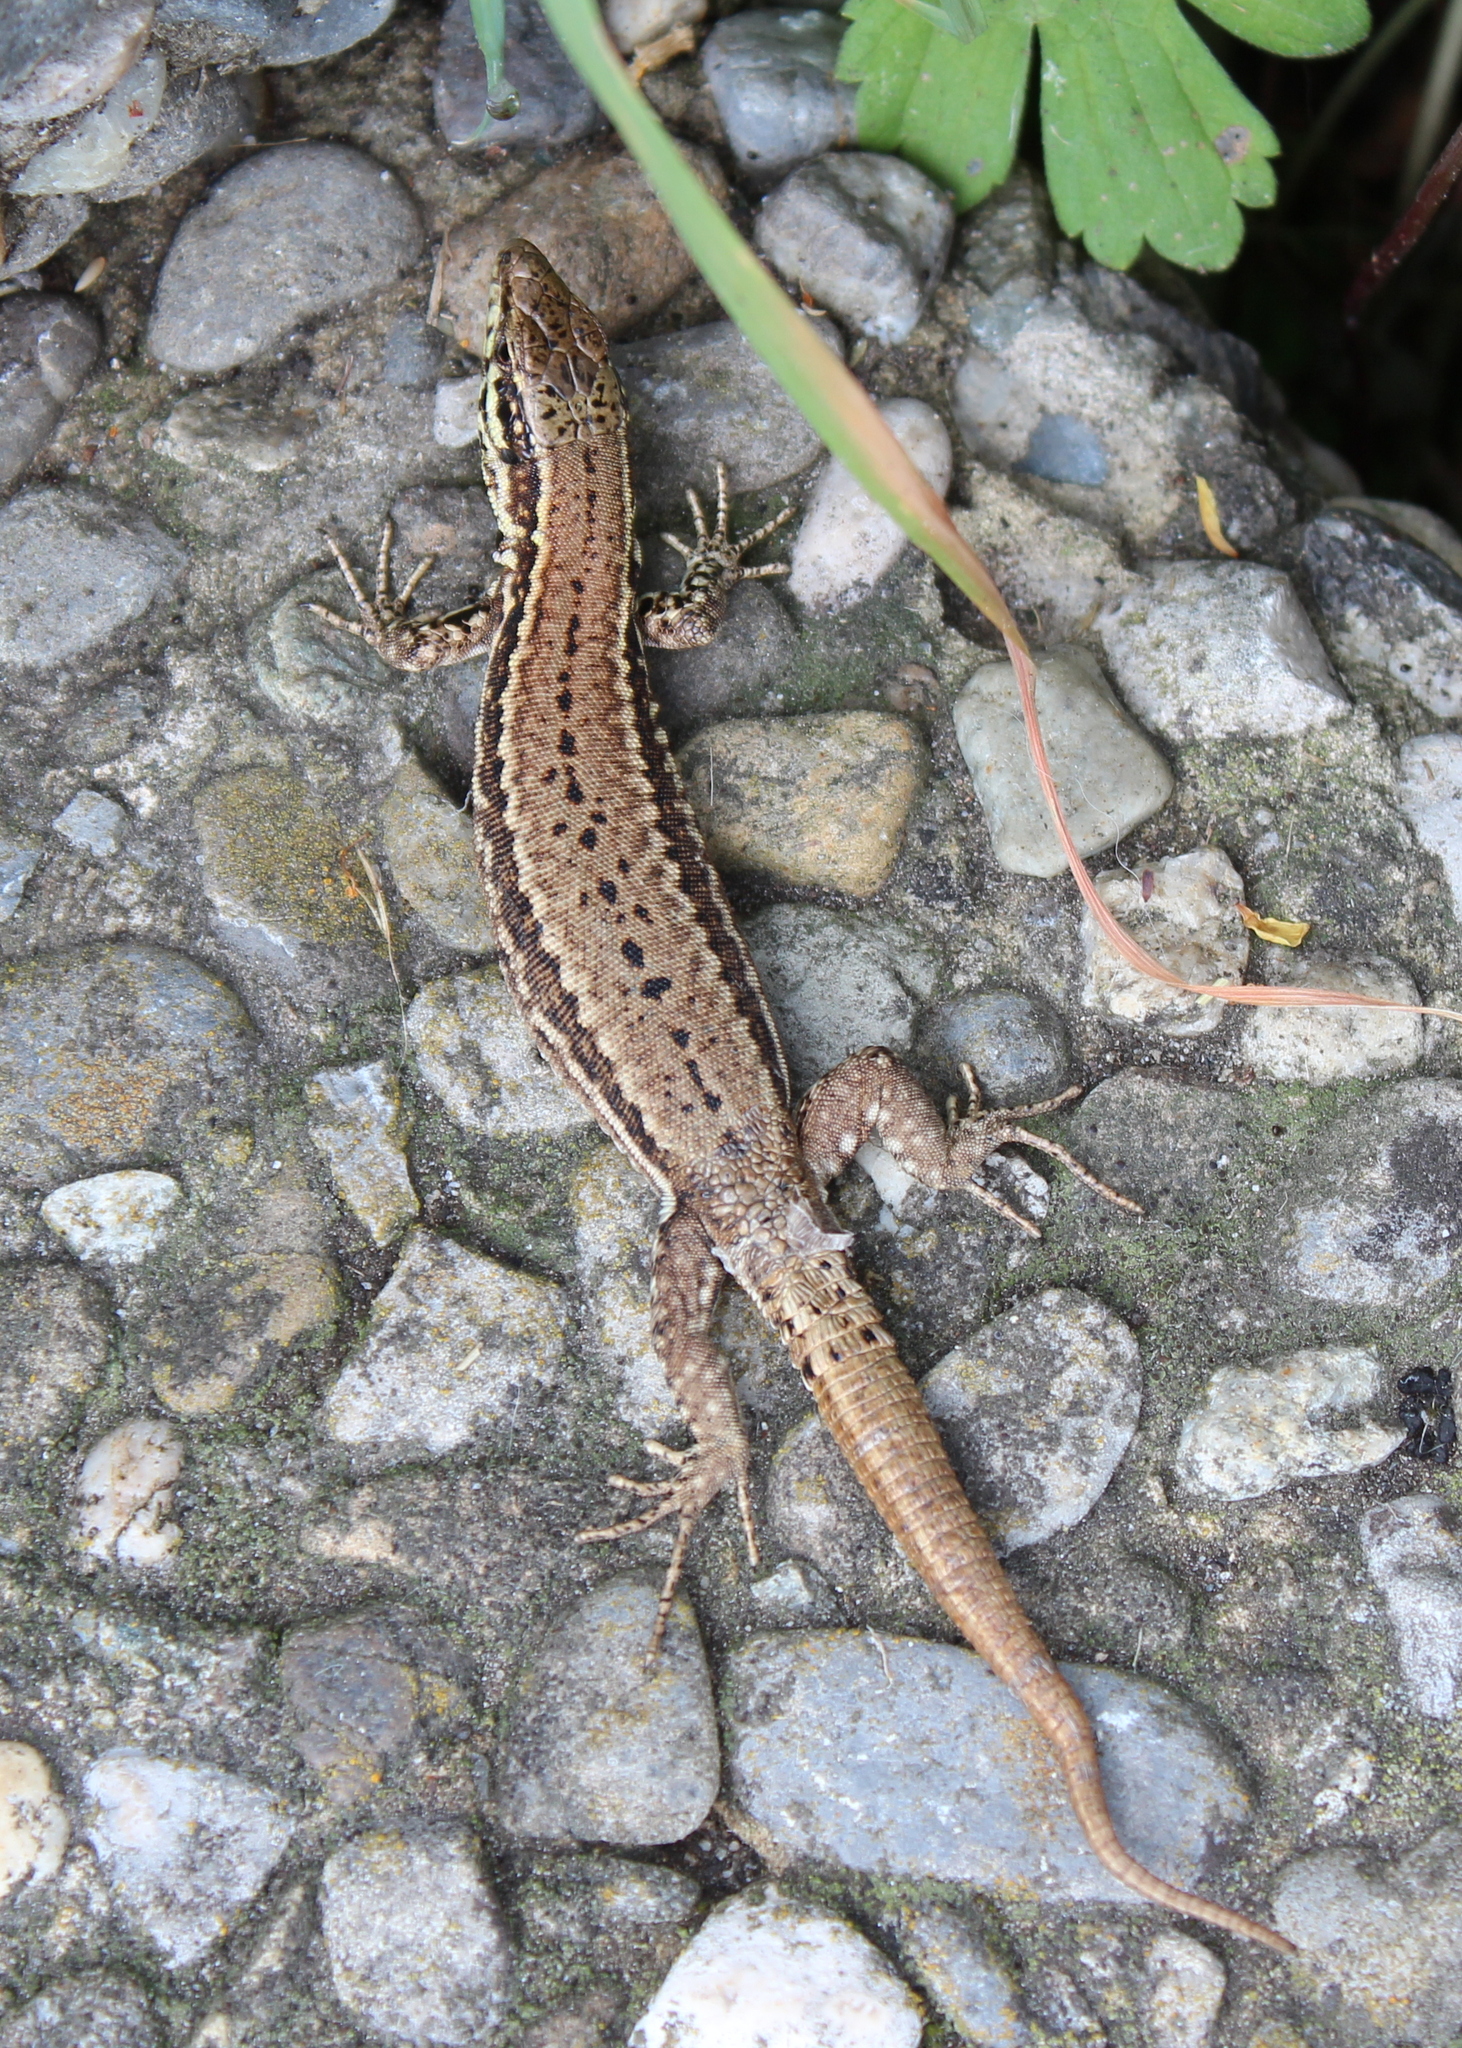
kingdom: Animalia
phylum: Chordata
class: Squamata
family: Lacertidae
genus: Podarcis
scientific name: Podarcis muralis
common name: Common wall lizard
